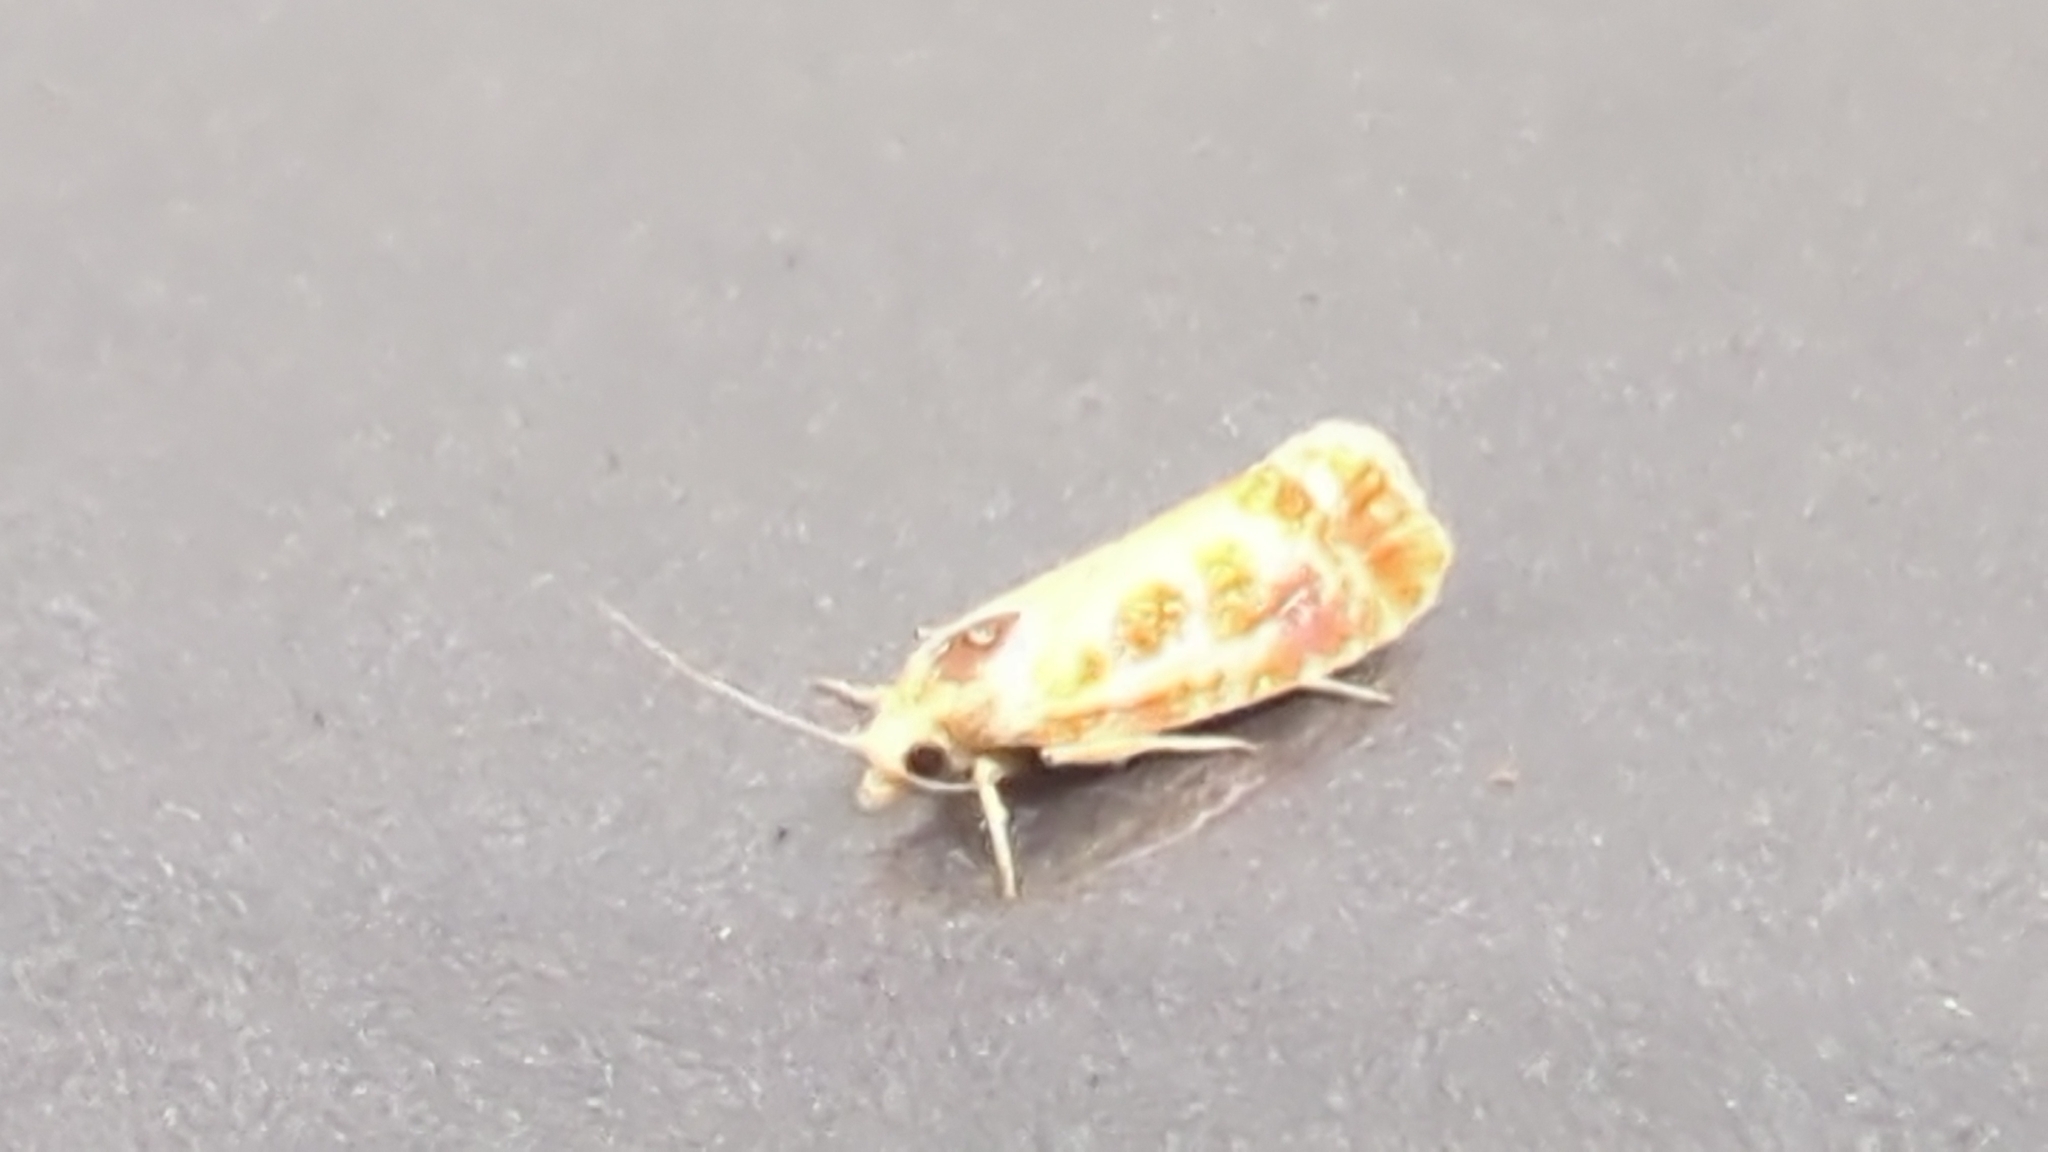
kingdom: Animalia
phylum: Arthropoda
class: Insecta
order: Lepidoptera
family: Tortricidae
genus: Rhyacionia
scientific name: Rhyacionia buoliana
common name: European pine shoot moth
